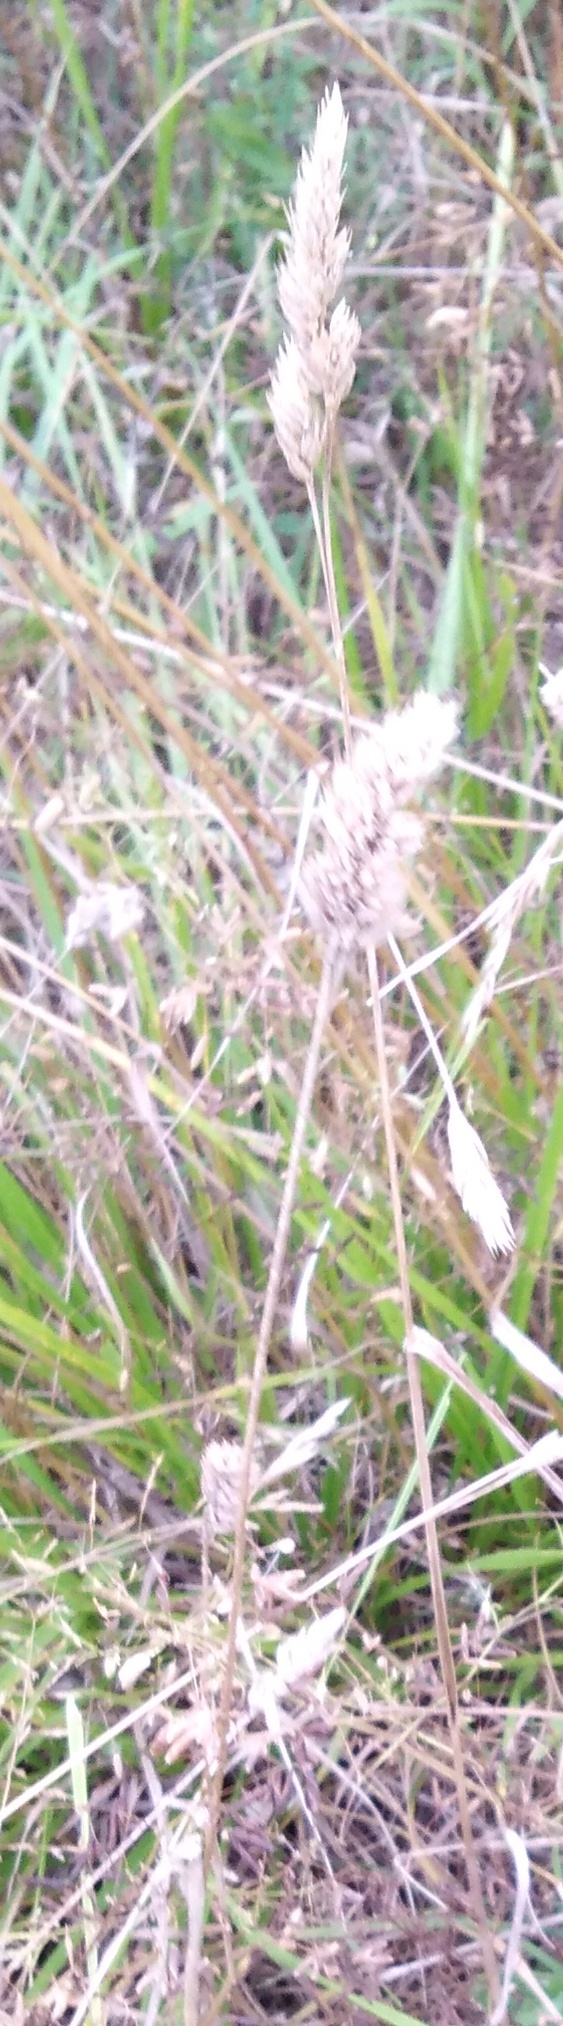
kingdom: Plantae
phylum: Tracheophyta
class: Liliopsida
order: Poales
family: Poaceae
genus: Dactylis
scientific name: Dactylis glomerata
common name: Orchardgrass
